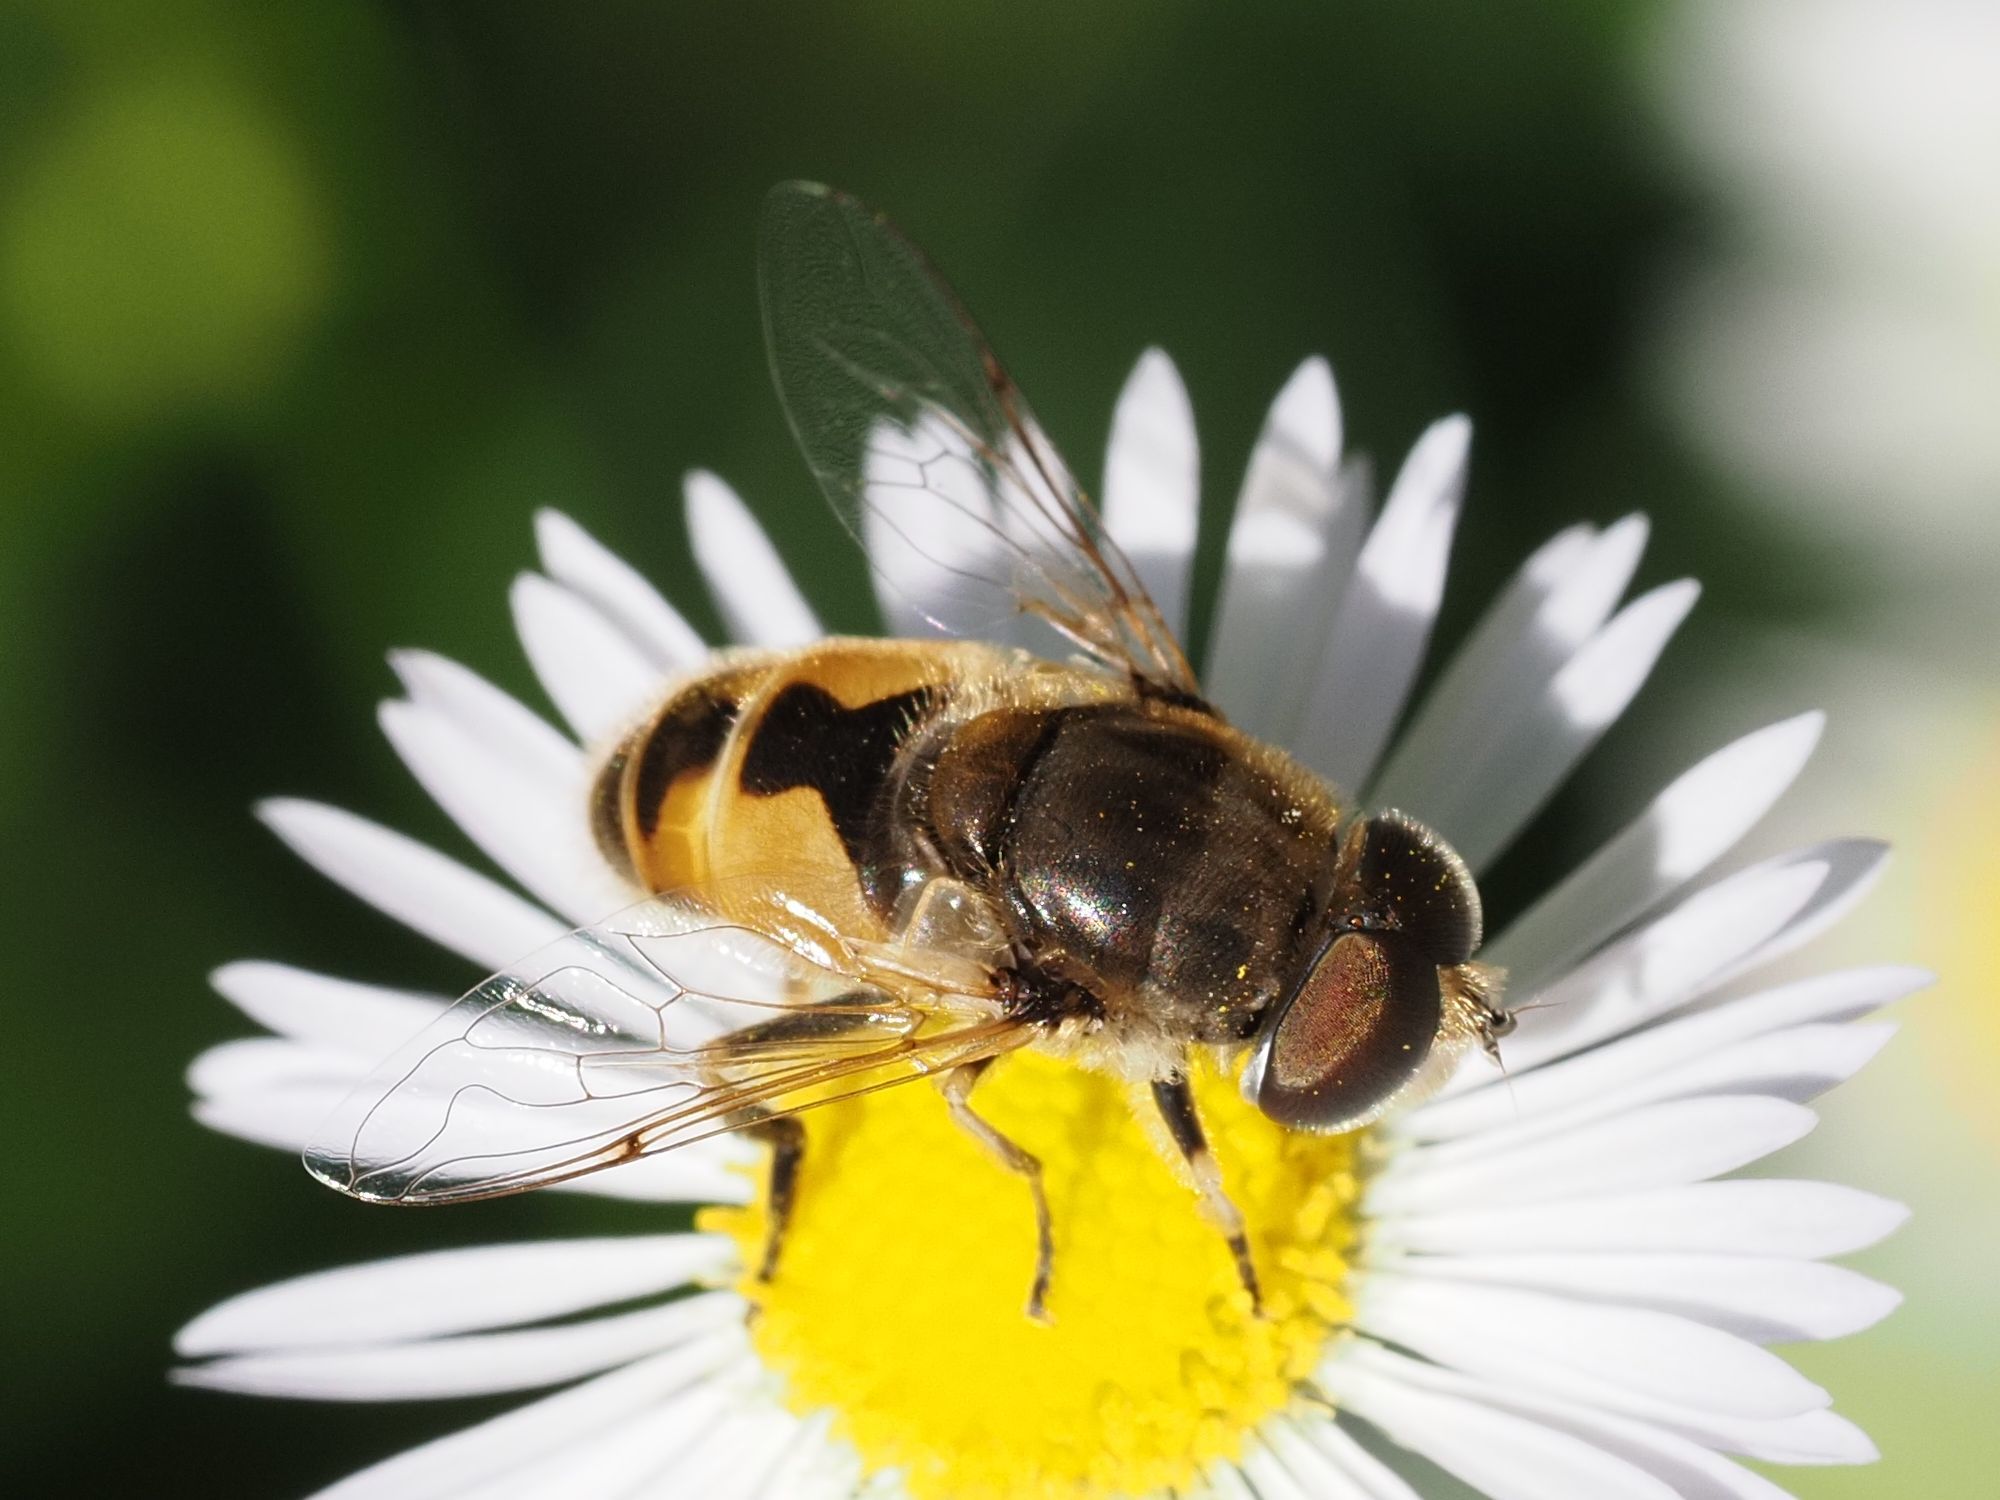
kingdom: Animalia
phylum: Arthropoda
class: Insecta
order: Diptera
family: Syrphidae
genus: Eristalis
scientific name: Eristalis arbustorum
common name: Hover fly
